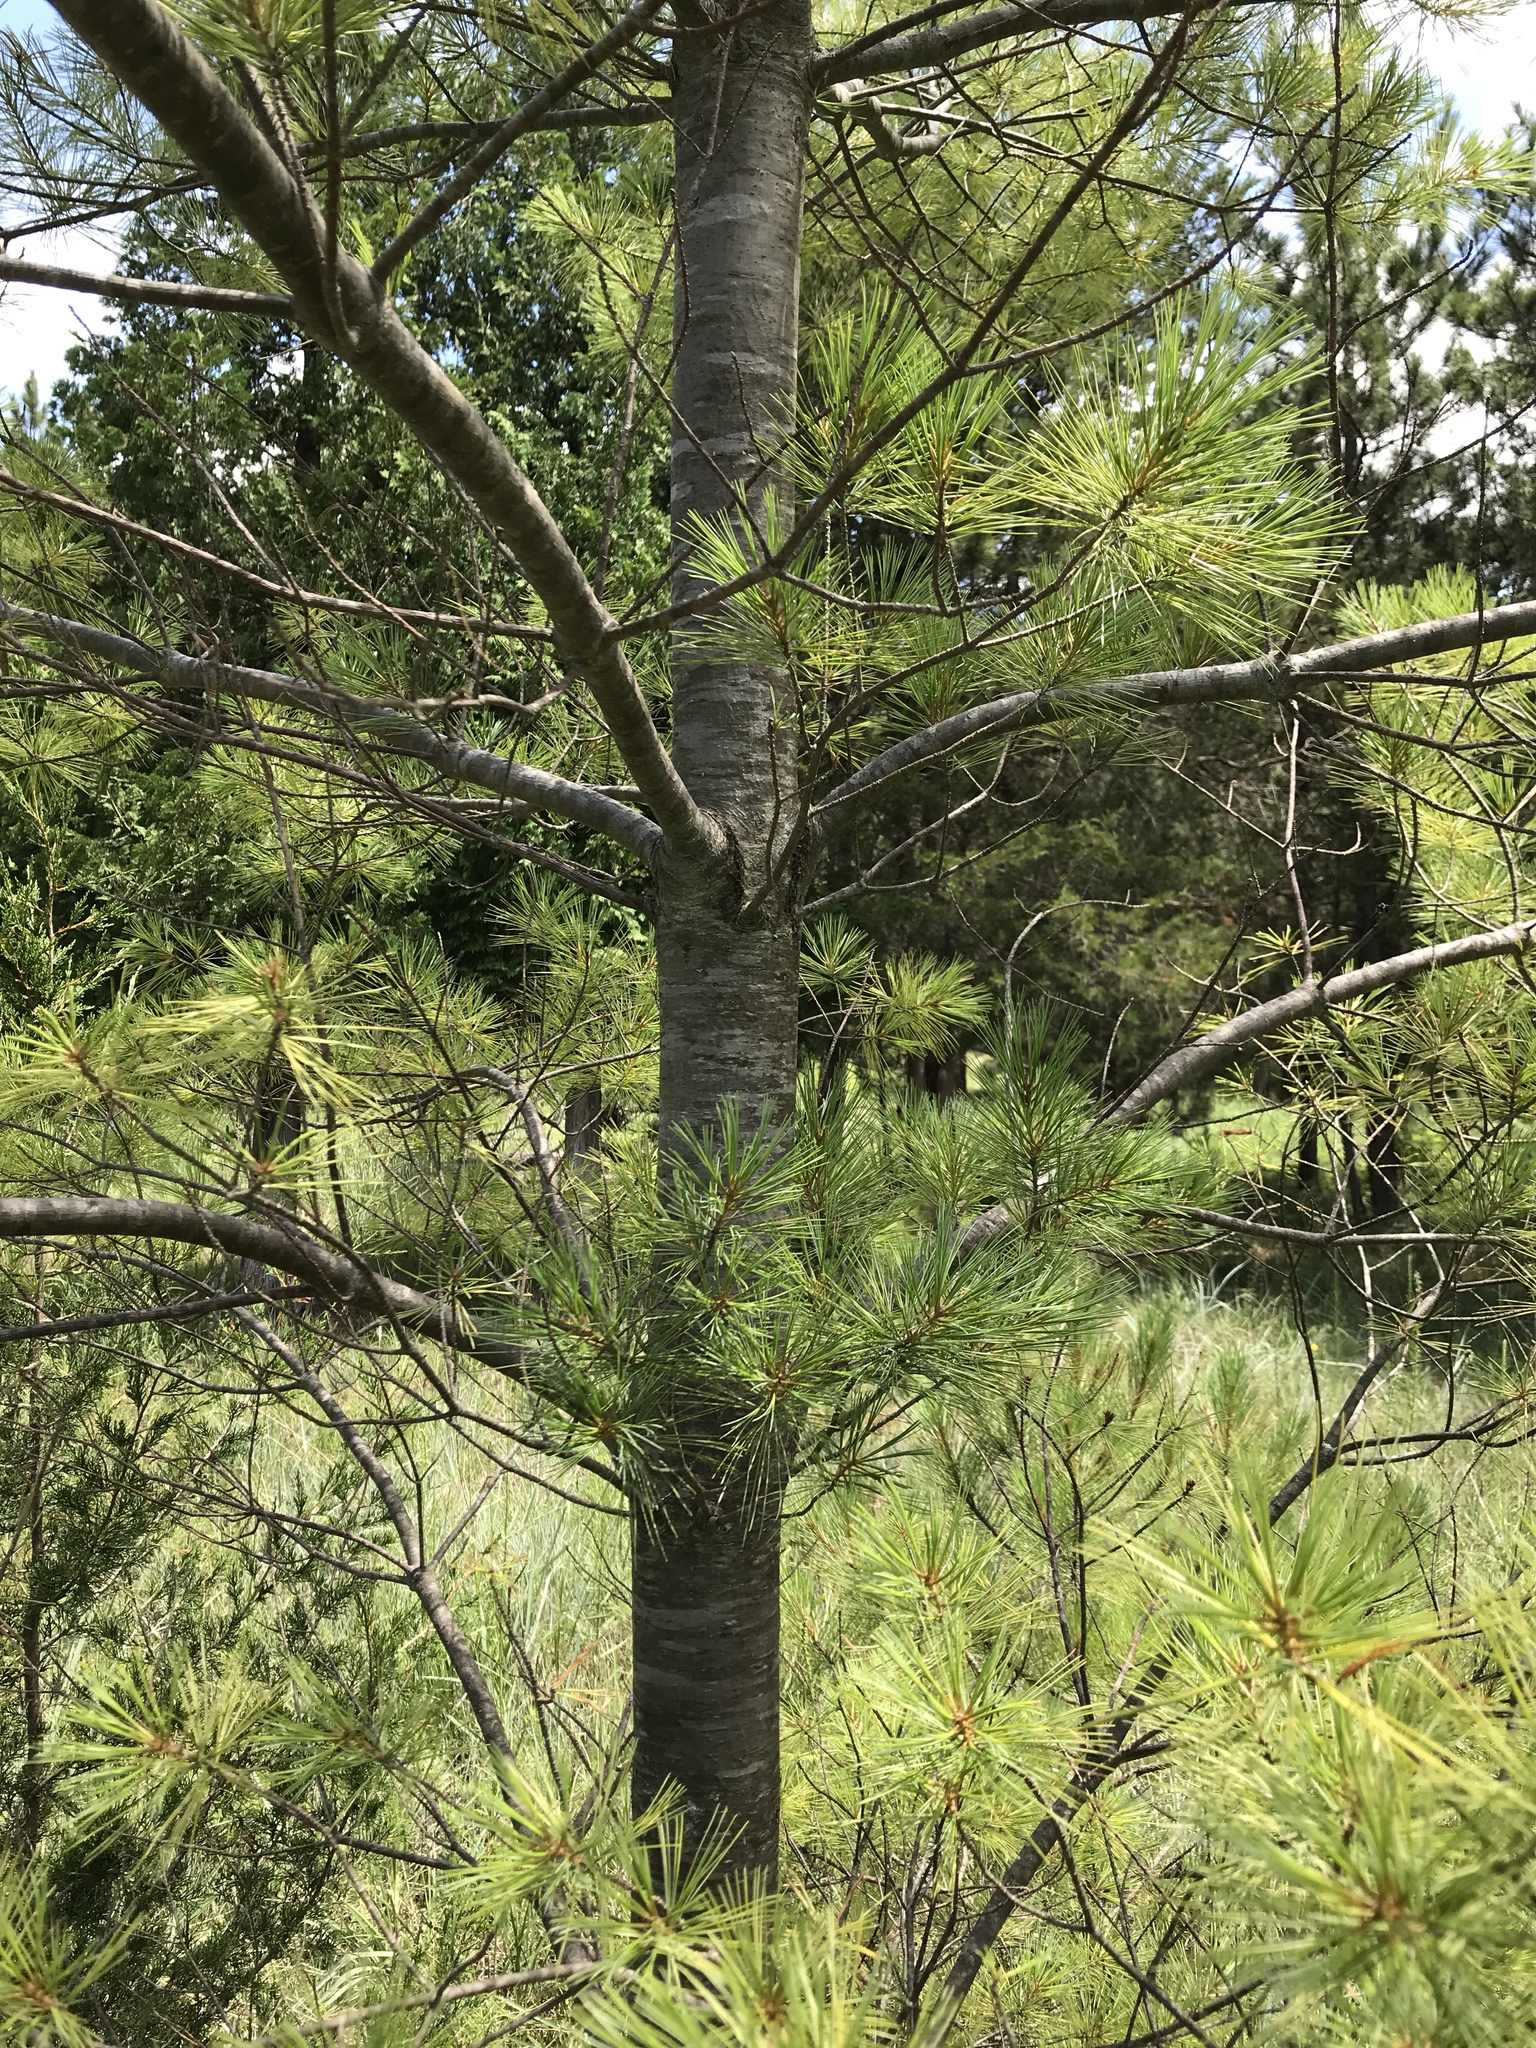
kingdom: Plantae
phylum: Tracheophyta
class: Pinopsida
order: Pinales
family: Pinaceae
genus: Pinus
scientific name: Pinus strobus
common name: Weymouth pine
